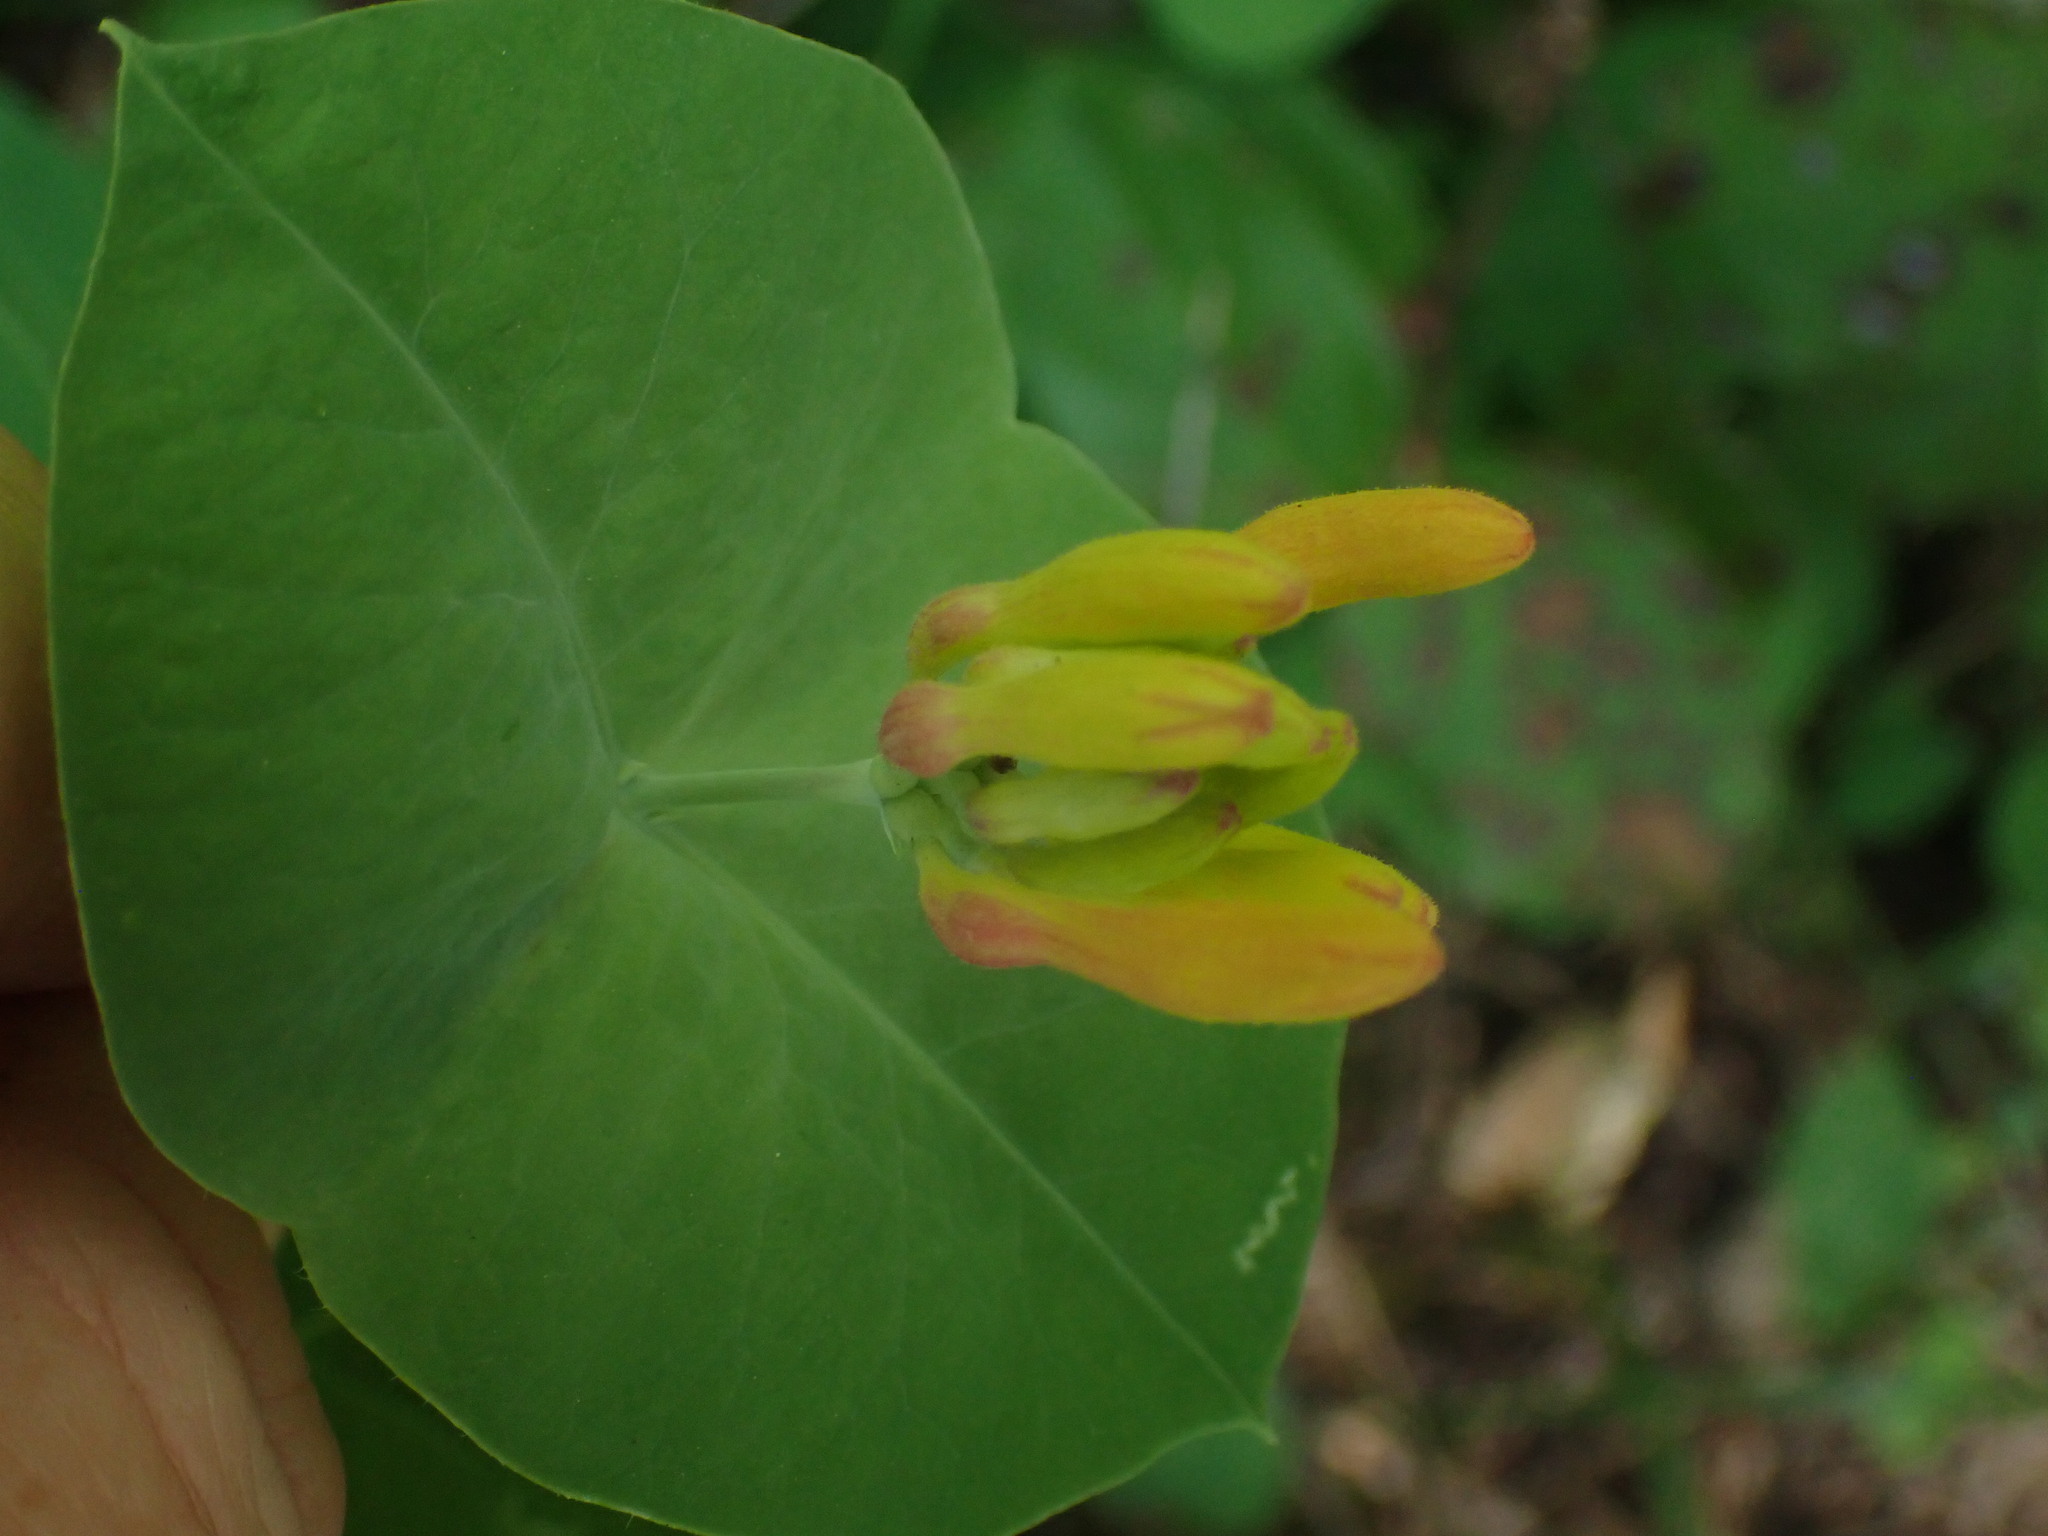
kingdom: Plantae
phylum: Tracheophyta
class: Magnoliopsida
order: Dipsacales
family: Caprifoliaceae
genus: Lonicera
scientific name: Lonicera ciliosa
